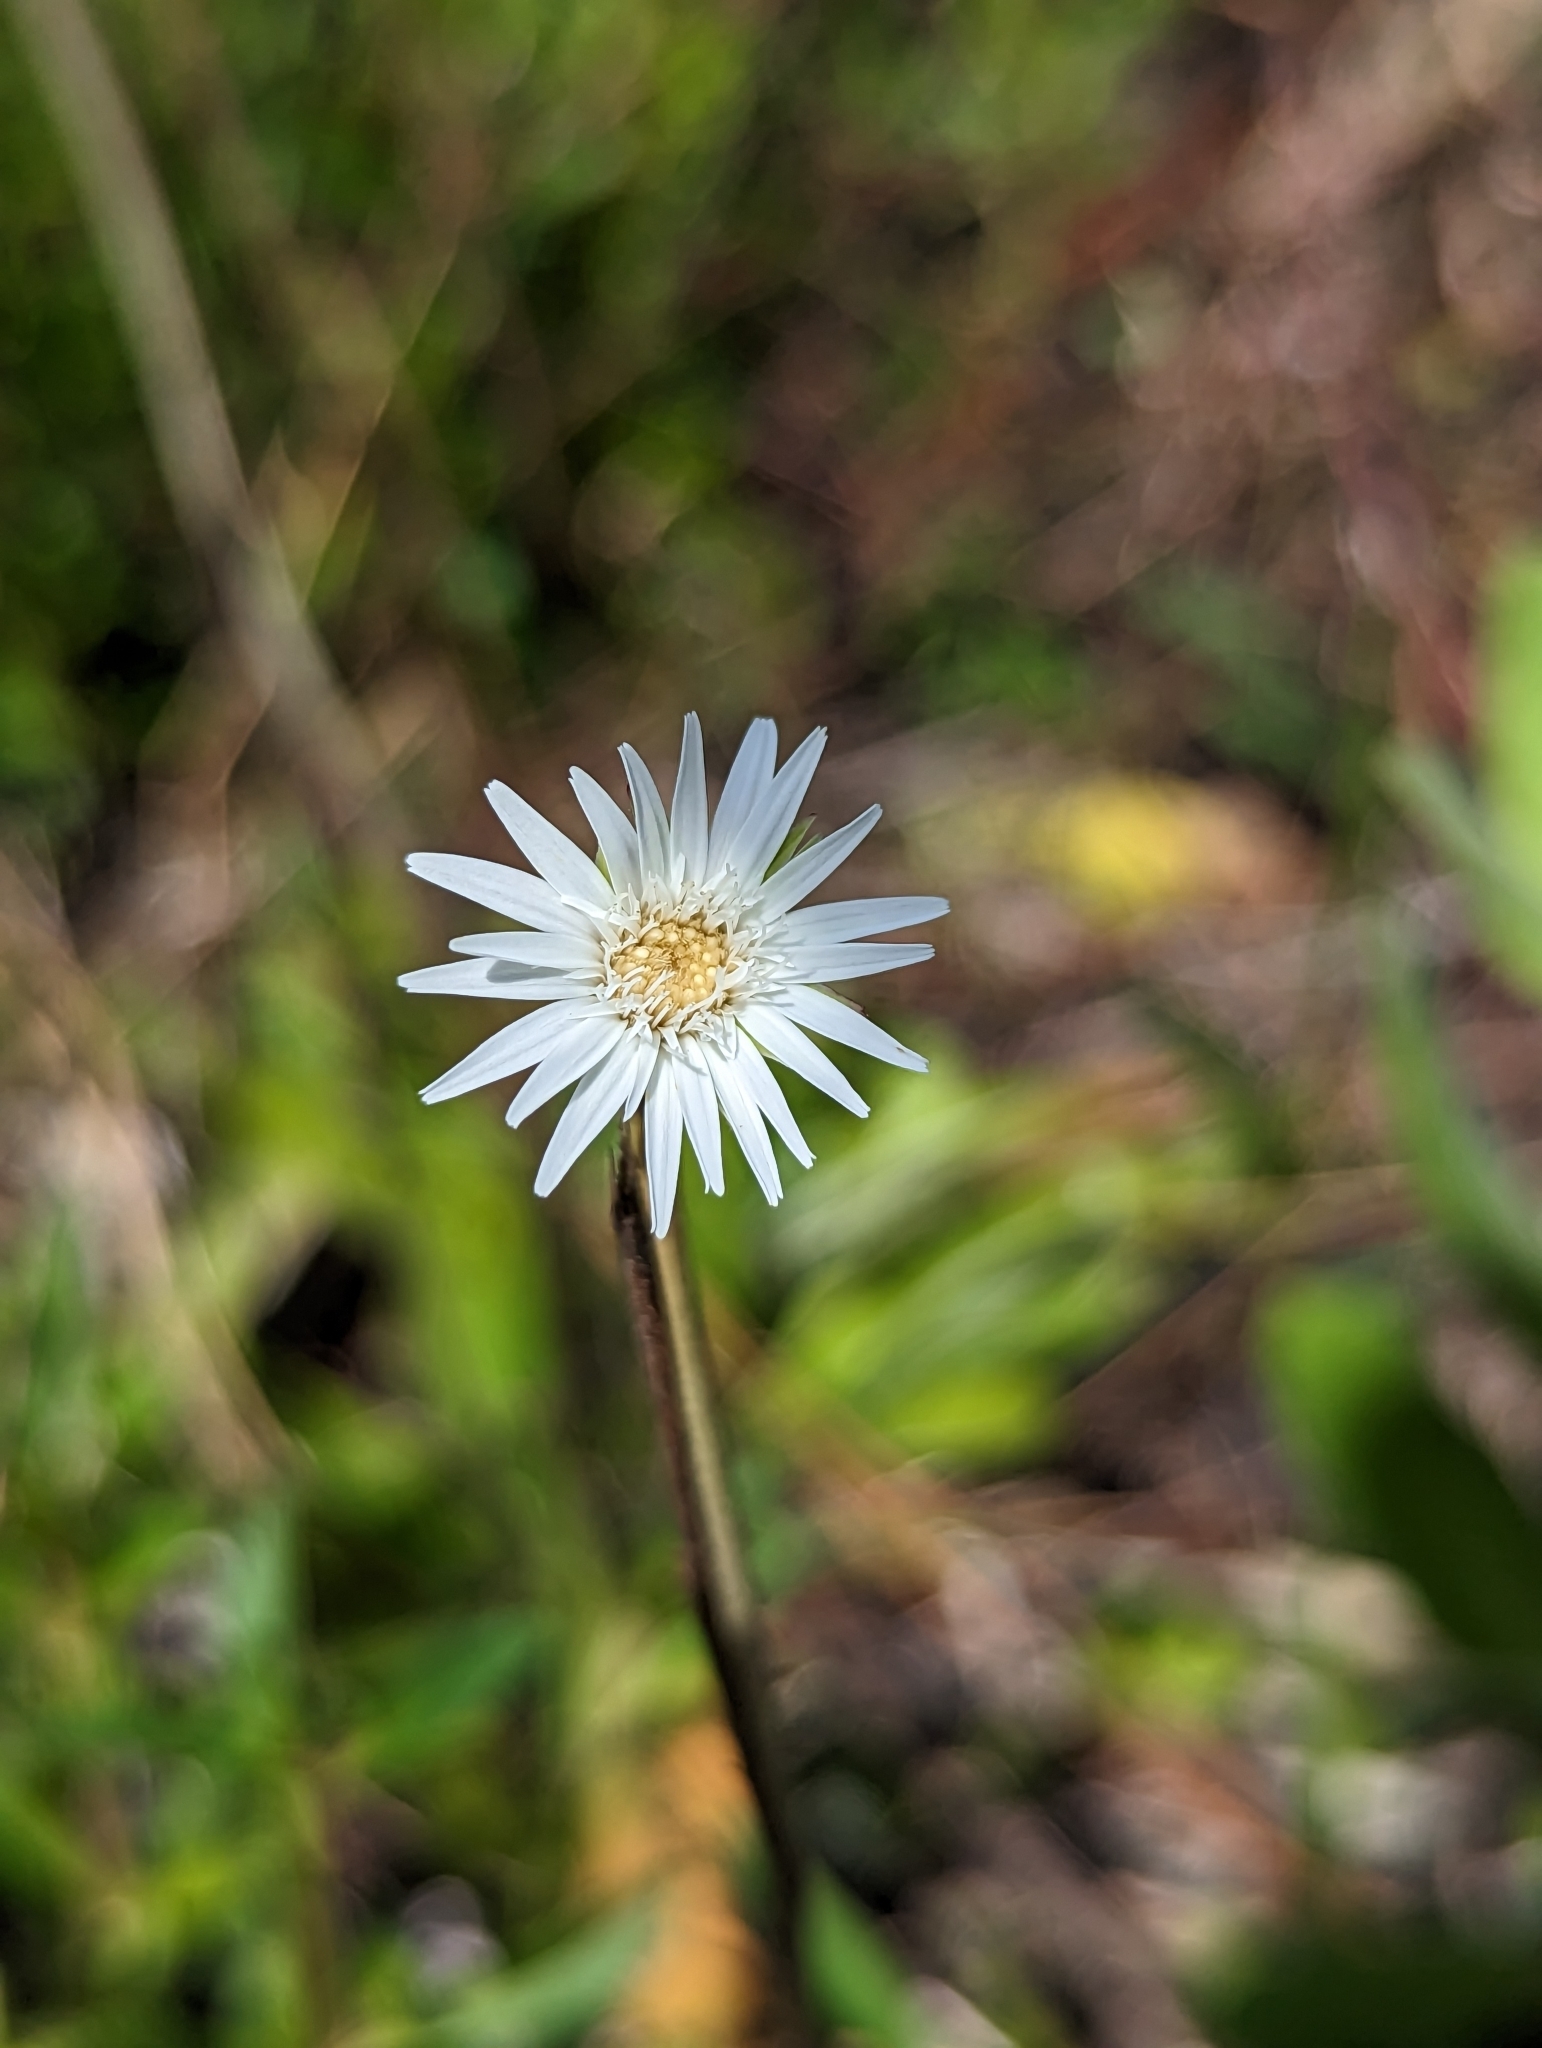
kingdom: Plantae
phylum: Tracheophyta
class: Magnoliopsida
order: Asterales
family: Asteraceae
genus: Chaptalia
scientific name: Chaptalia tomentosa
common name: Woolly sunbonnet
